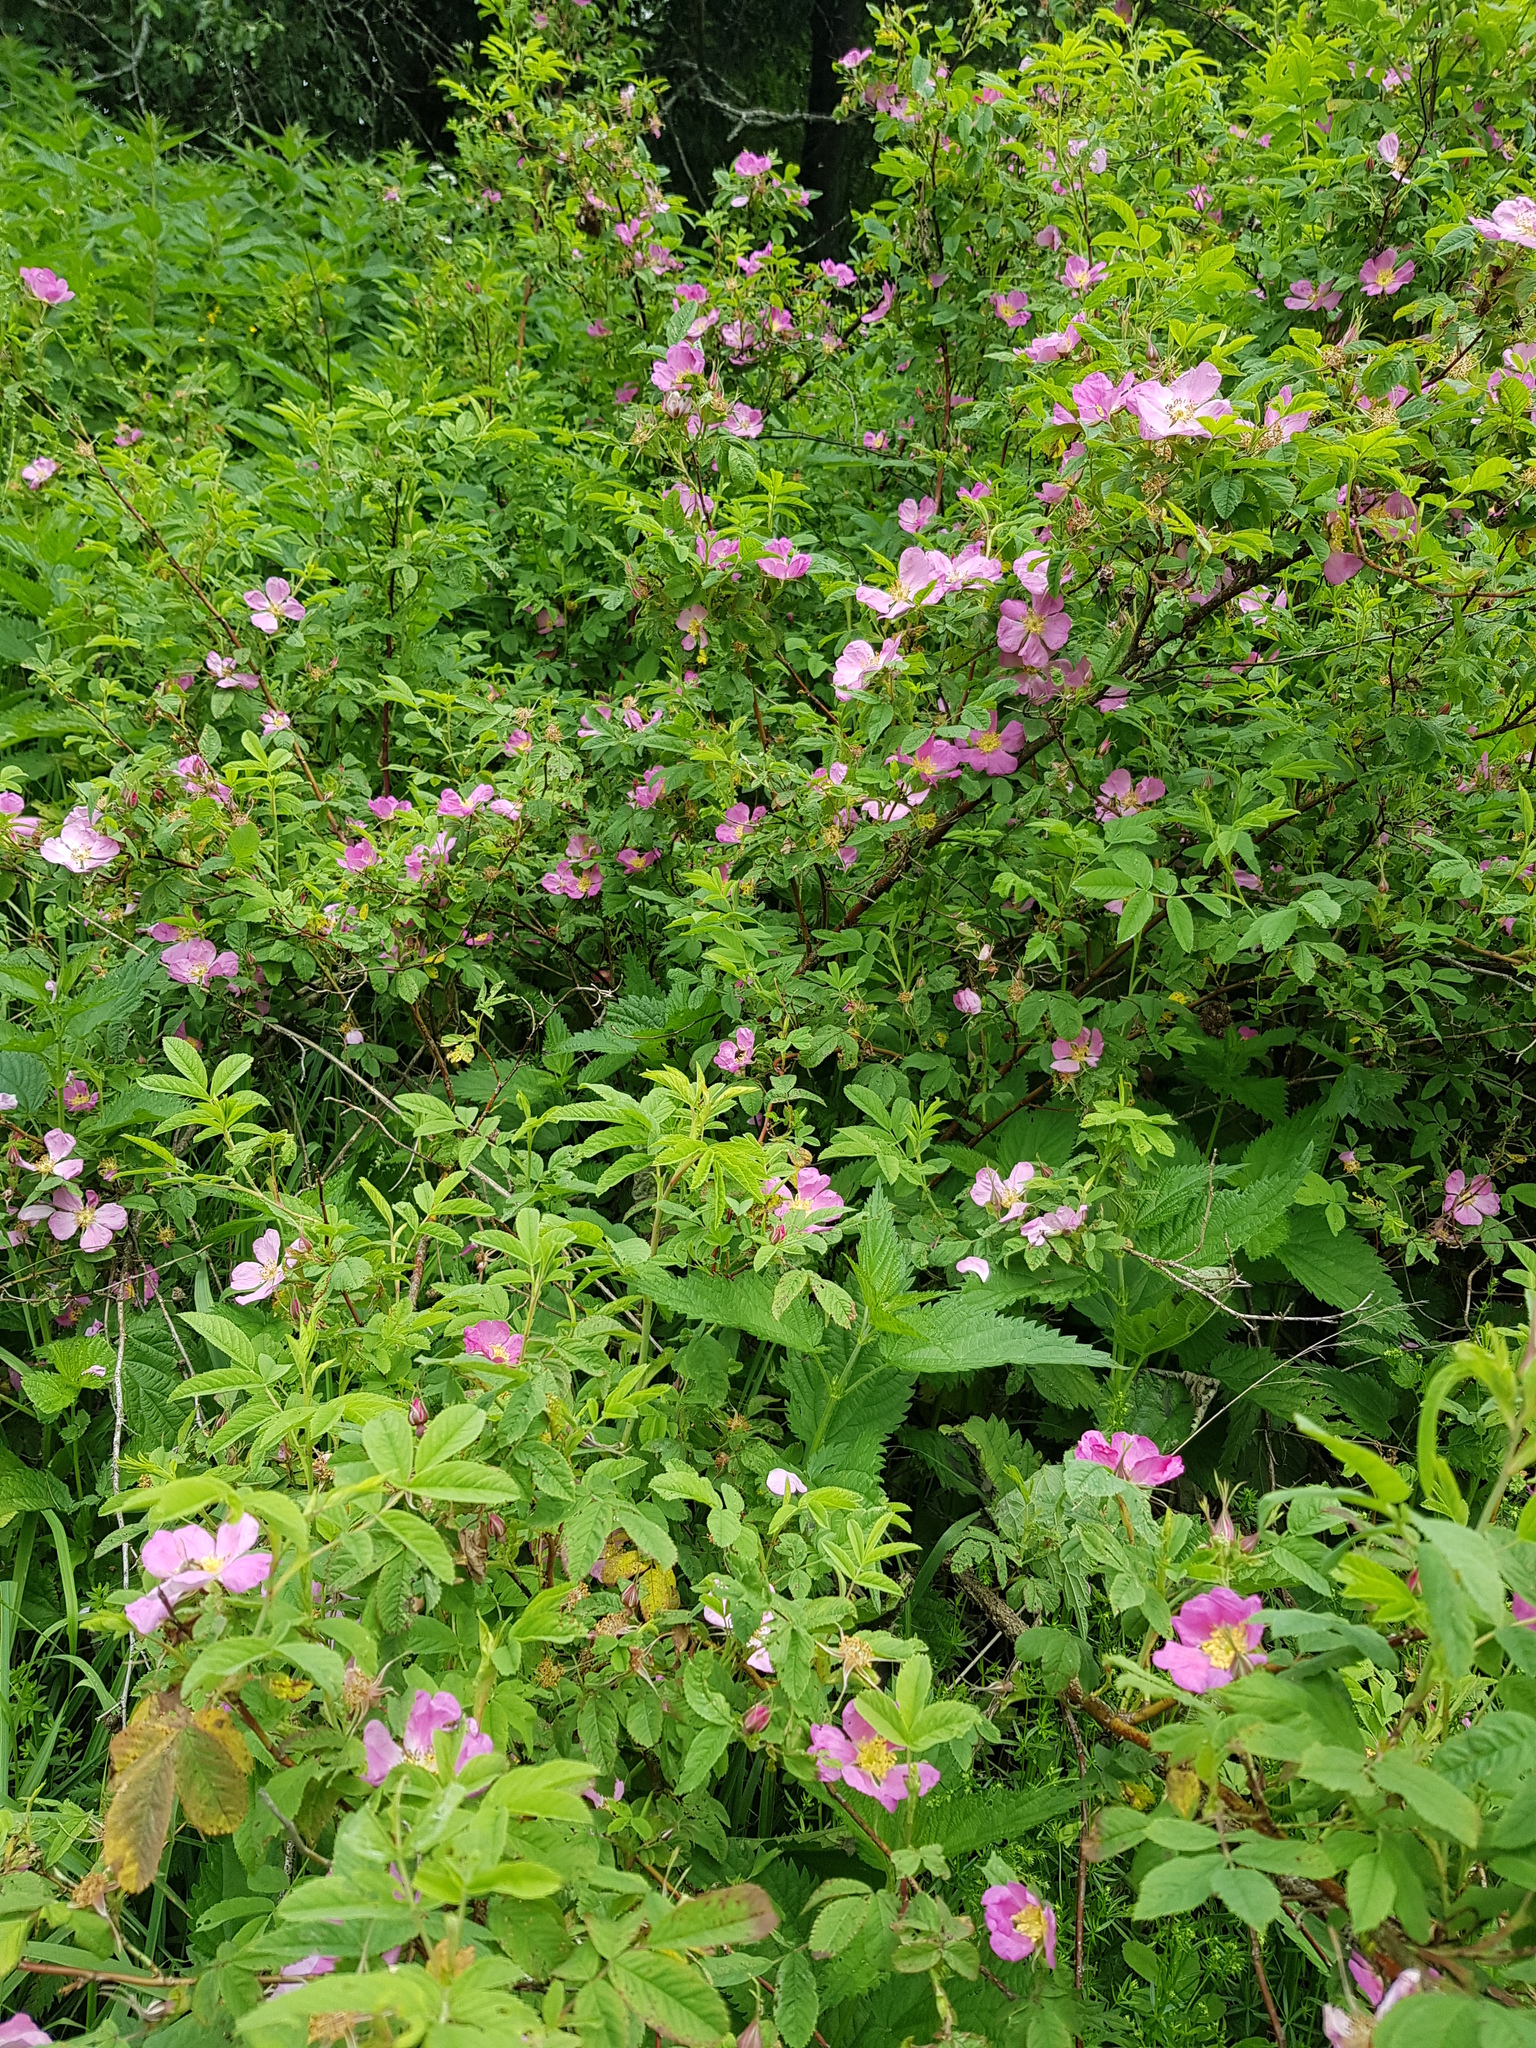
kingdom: Plantae
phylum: Tracheophyta
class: Magnoliopsida
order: Rosales
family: Rosaceae
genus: Rosa
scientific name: Rosa
